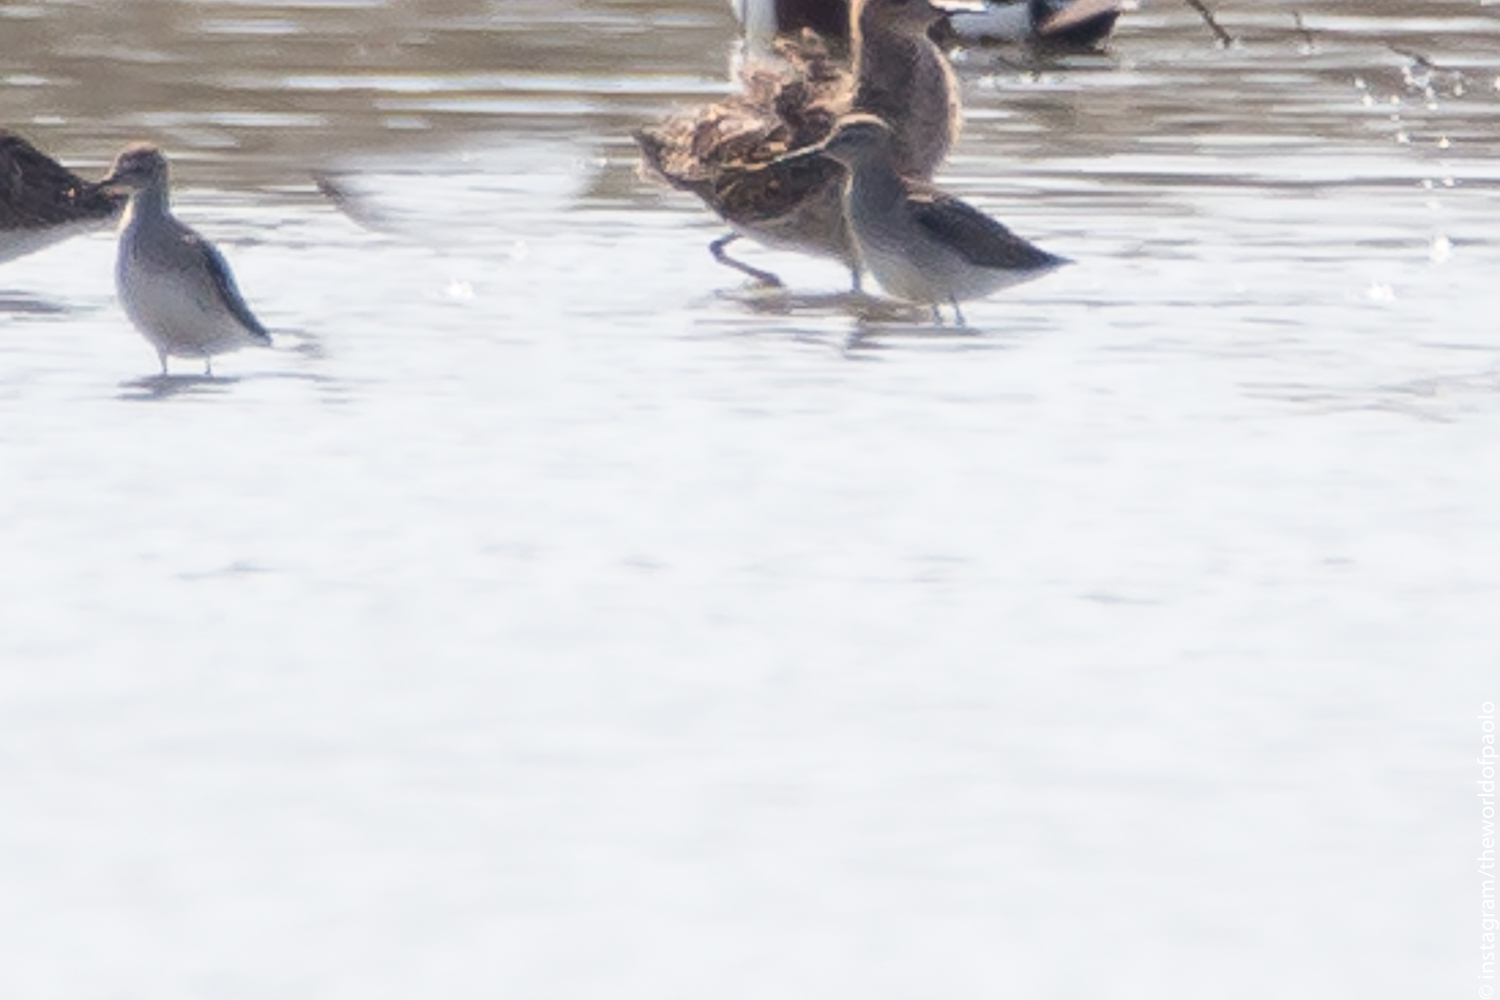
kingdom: Animalia
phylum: Chordata
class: Aves
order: Charadriiformes
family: Scolopacidae
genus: Tringa
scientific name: Tringa glareola
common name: Wood sandpiper
